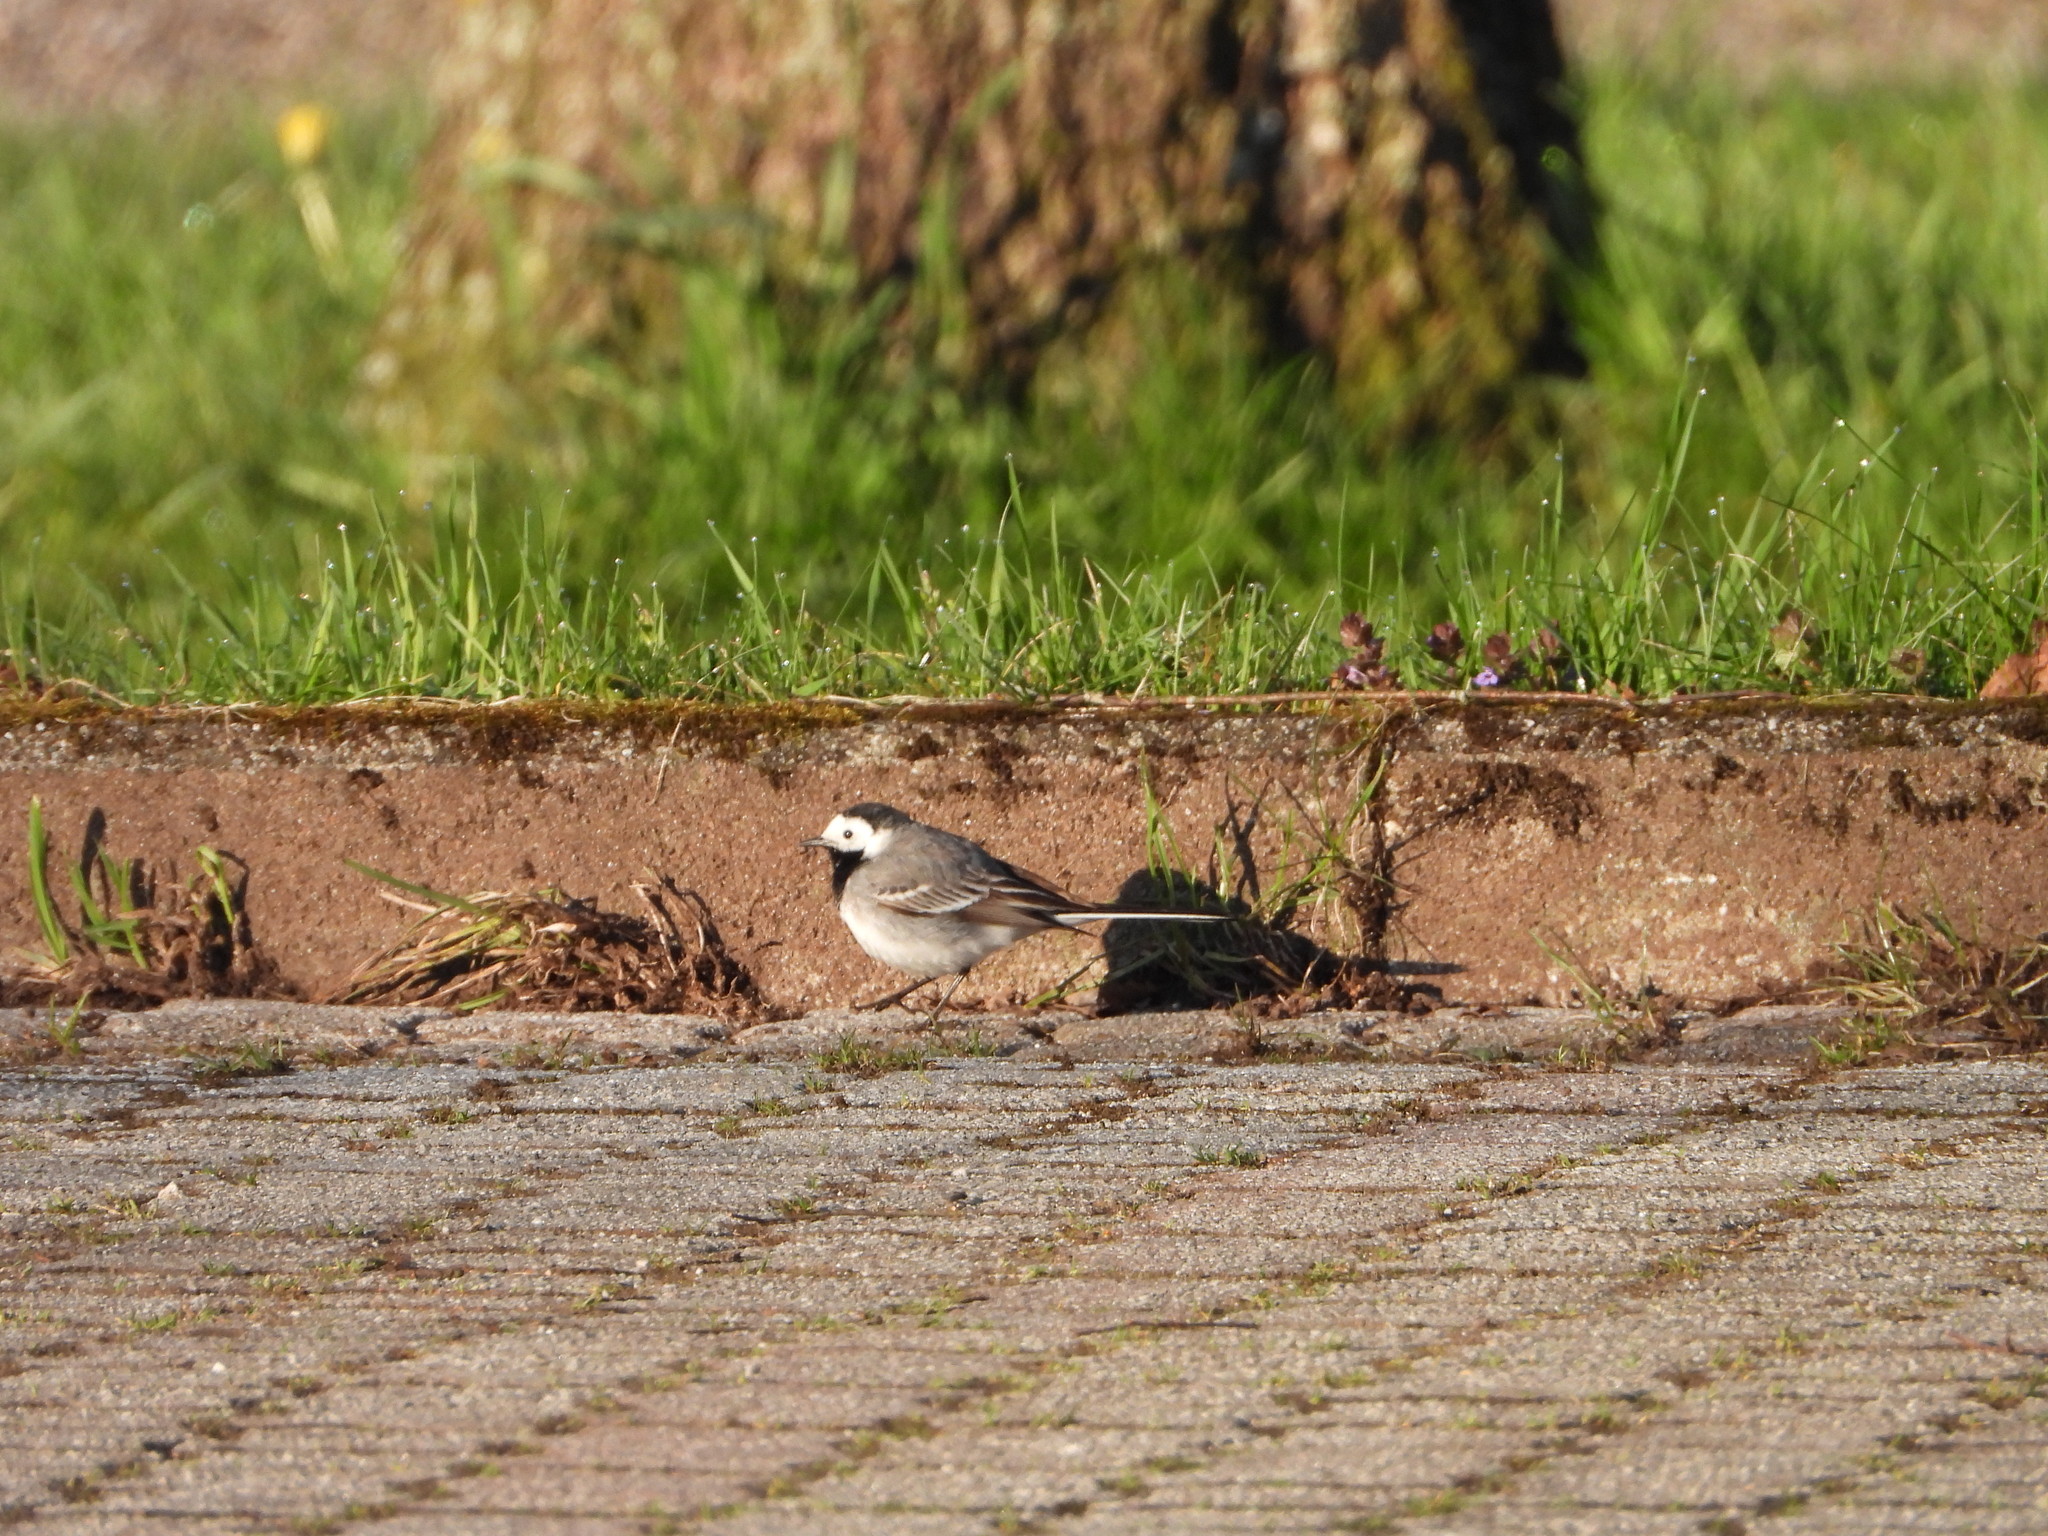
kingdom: Animalia
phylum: Chordata
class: Aves
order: Passeriformes
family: Motacillidae
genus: Motacilla
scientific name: Motacilla alba
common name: White wagtail
